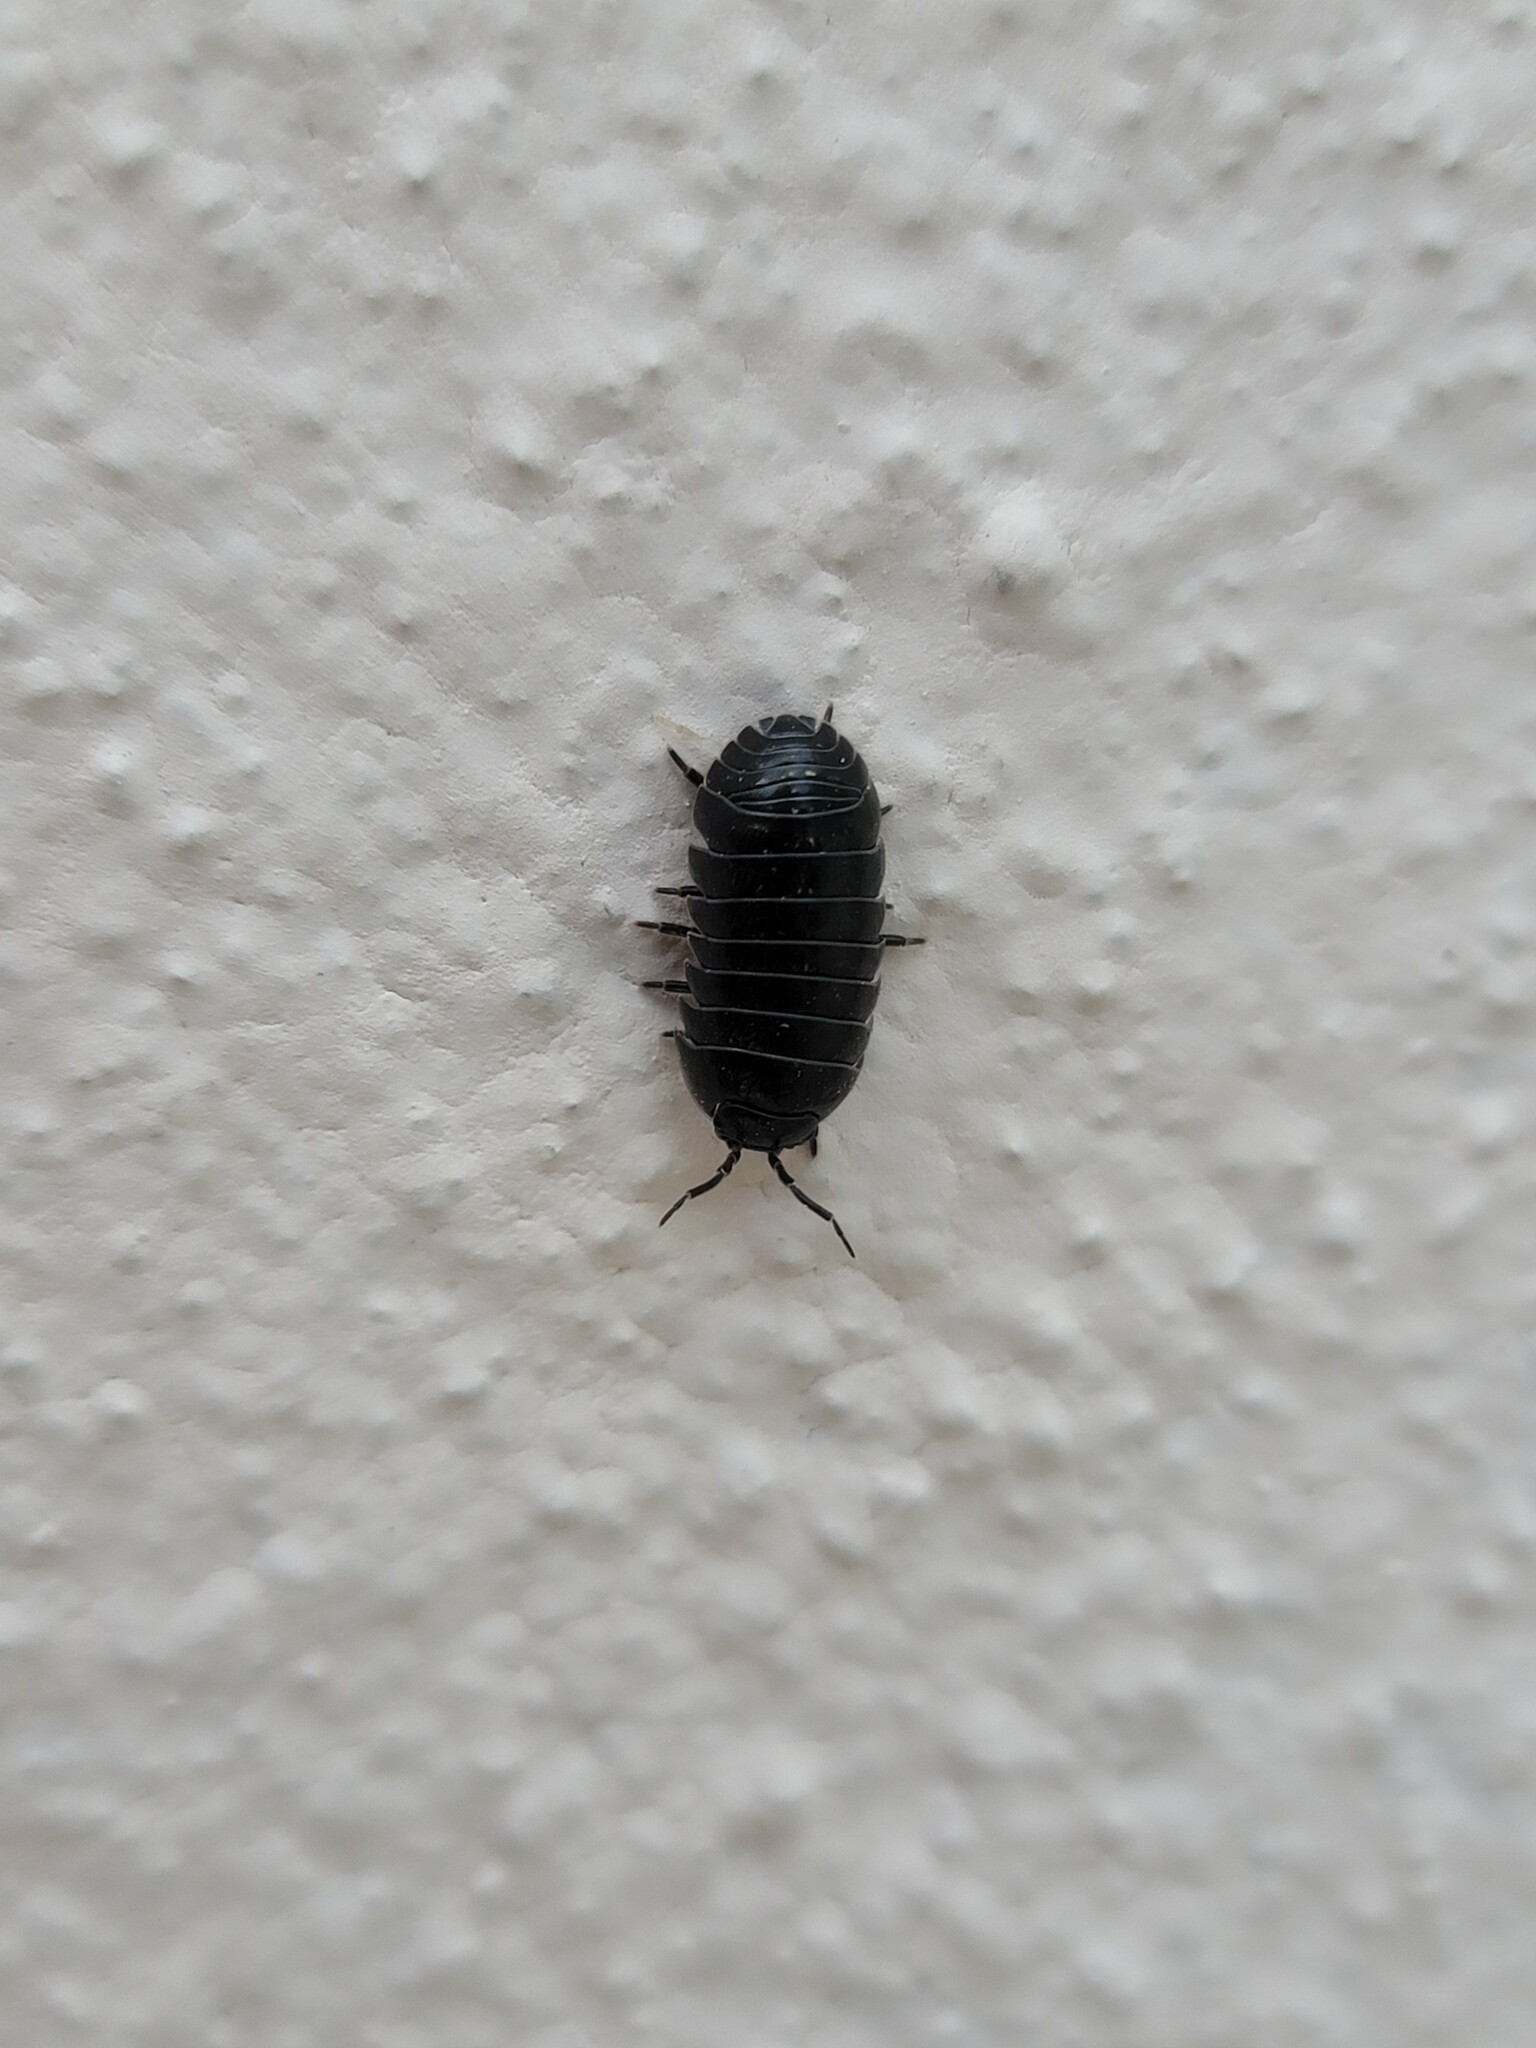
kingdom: Animalia
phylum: Arthropoda
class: Malacostraca
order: Isopoda
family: Armadillidiidae
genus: Armadillidium
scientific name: Armadillidium vulgare
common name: Common pill woodlouse
